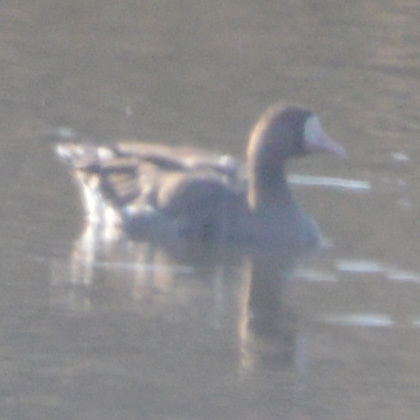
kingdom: Animalia
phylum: Chordata
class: Aves
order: Anseriformes
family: Anatidae
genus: Anser
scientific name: Anser albifrons
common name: Greater white-fronted goose
